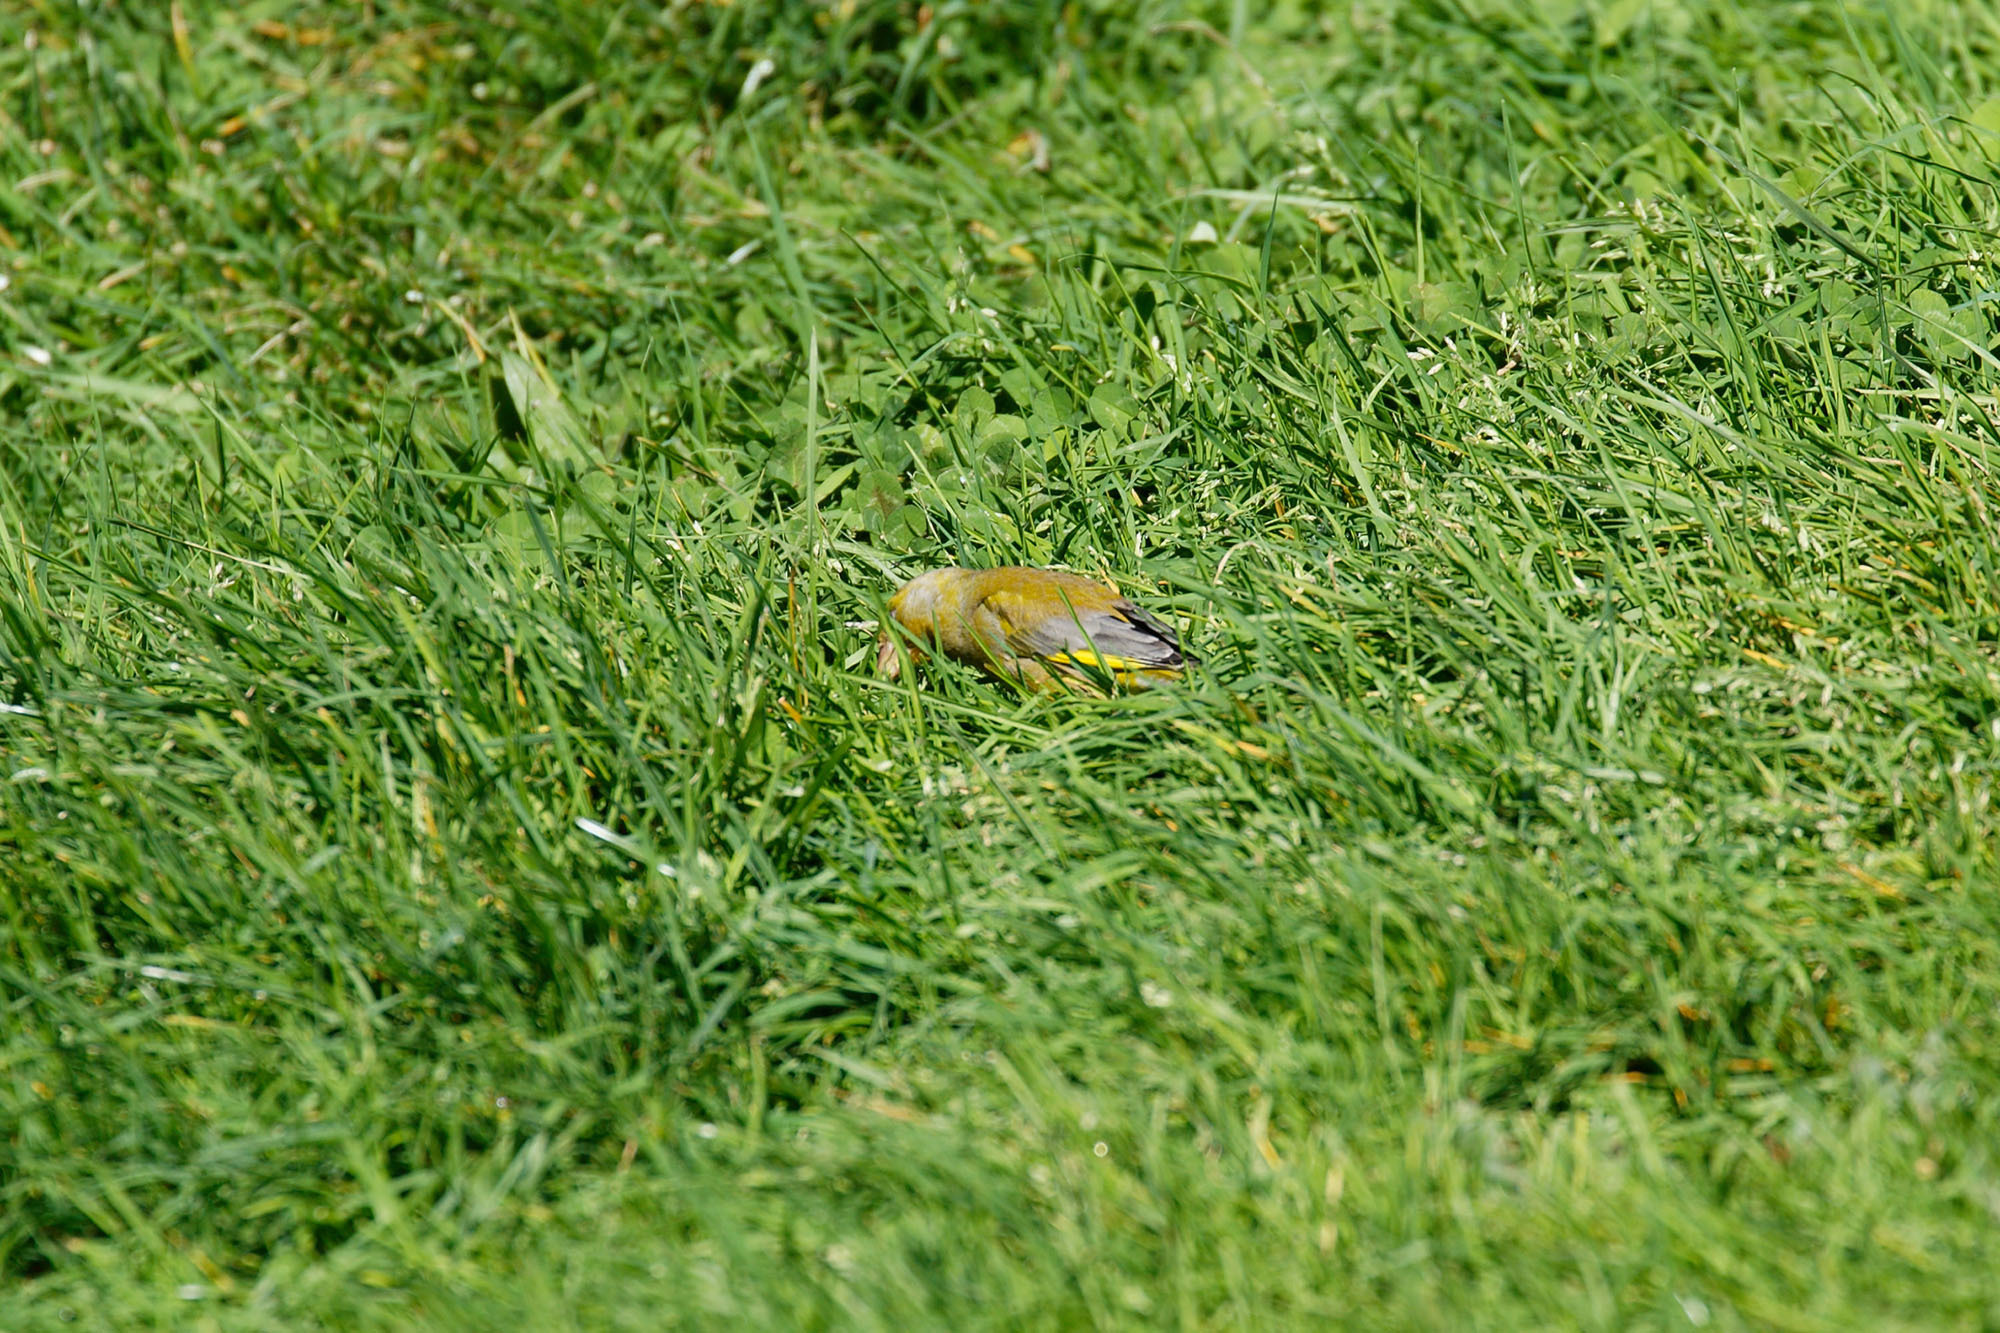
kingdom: Plantae
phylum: Tracheophyta
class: Liliopsida
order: Poales
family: Poaceae
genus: Chloris
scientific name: Chloris chloris
